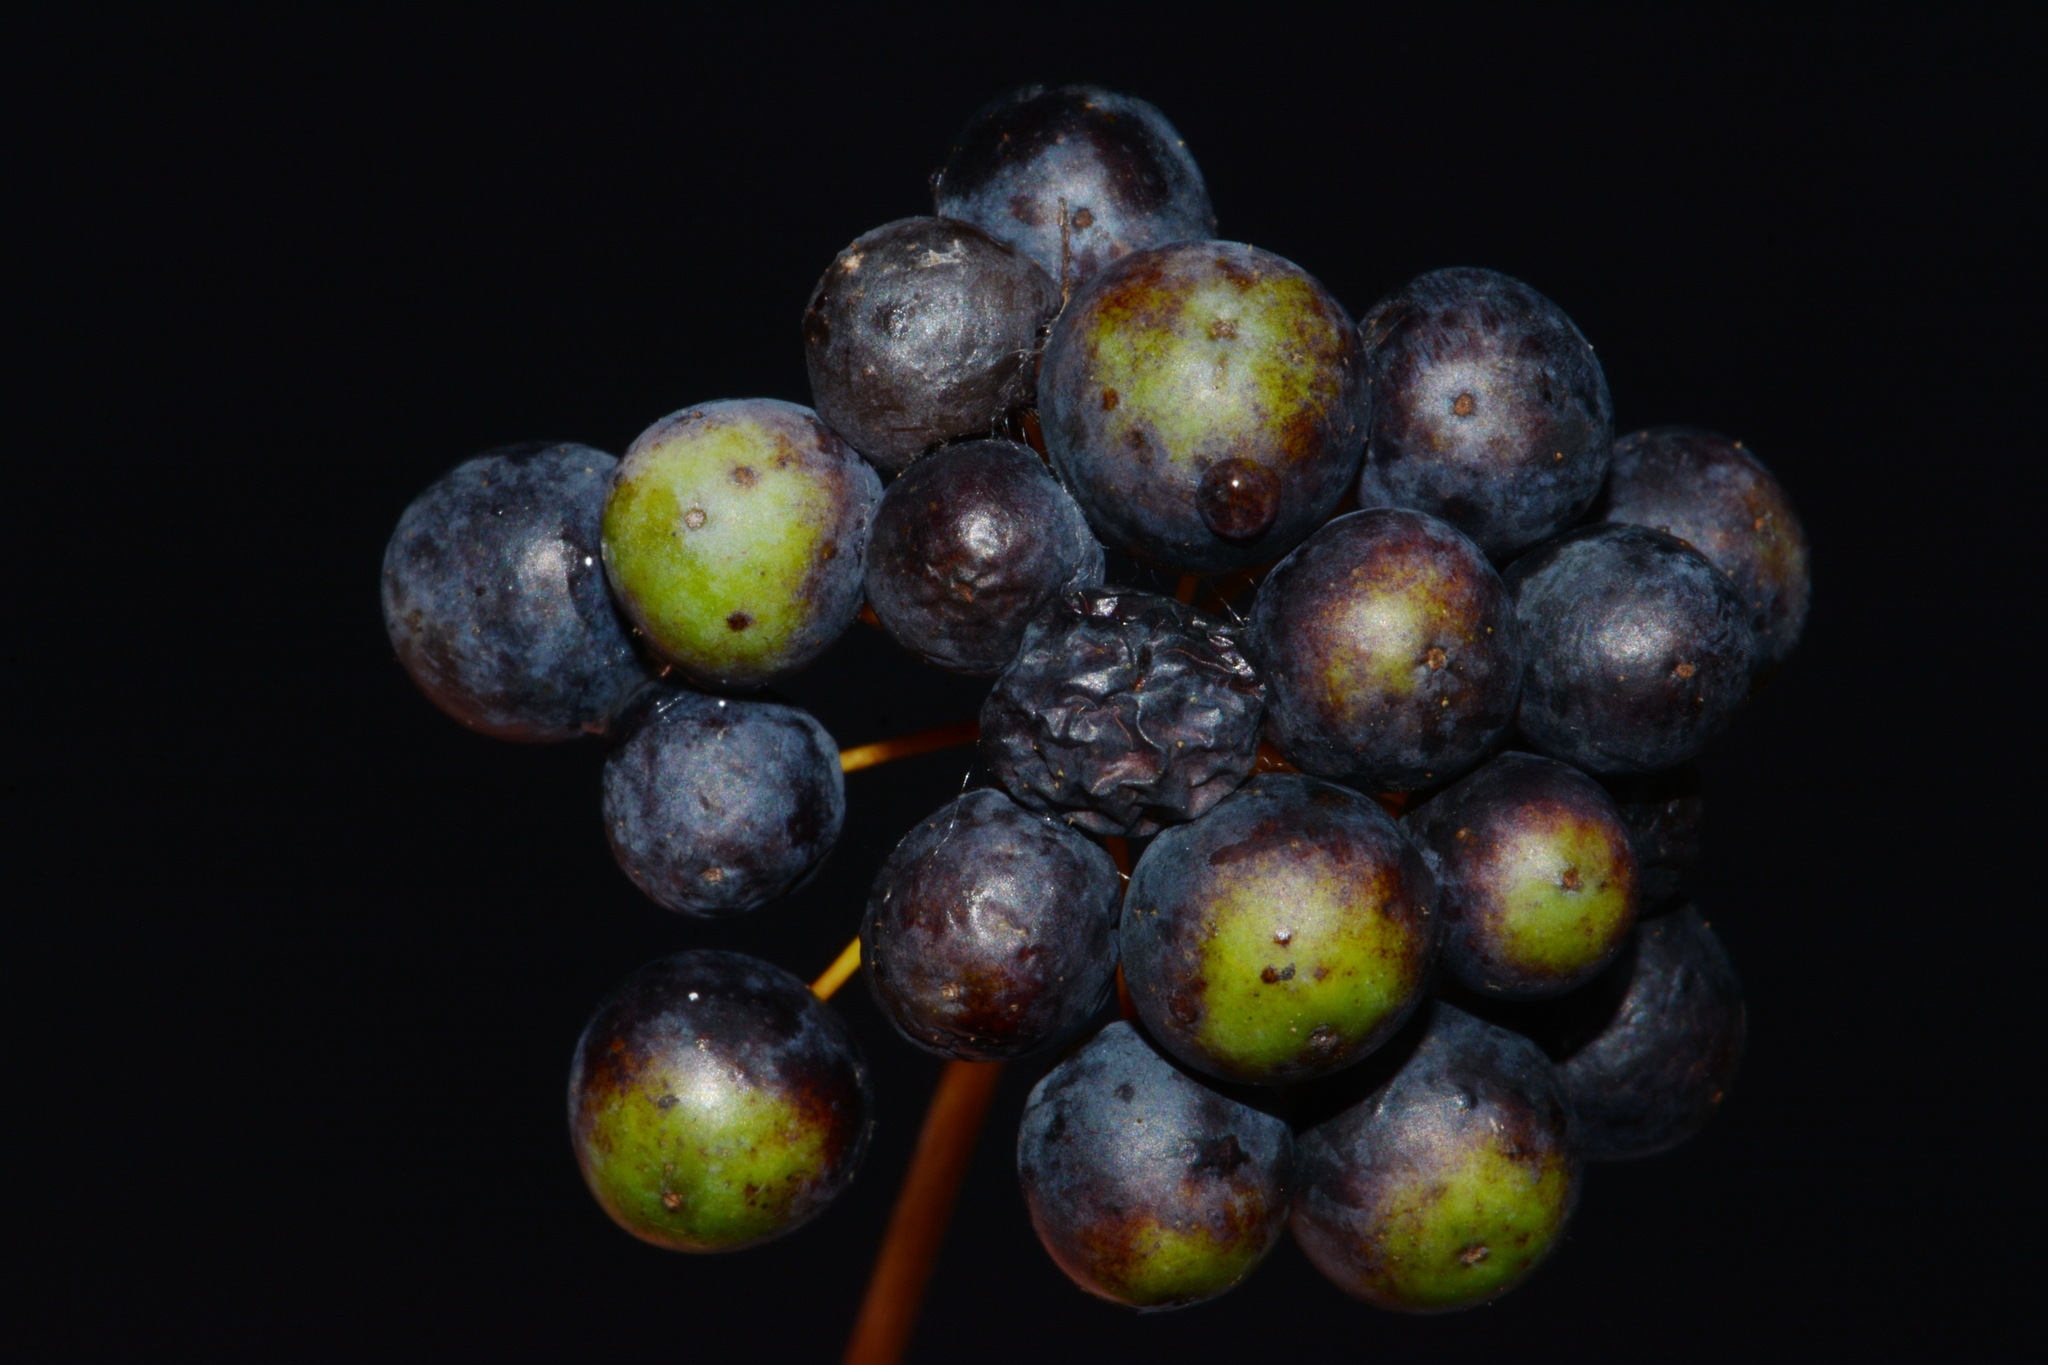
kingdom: Plantae
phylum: Tracheophyta
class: Liliopsida
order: Liliales
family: Smilacaceae
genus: Smilax
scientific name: Smilax herbacea
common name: Jacob's-ladder
